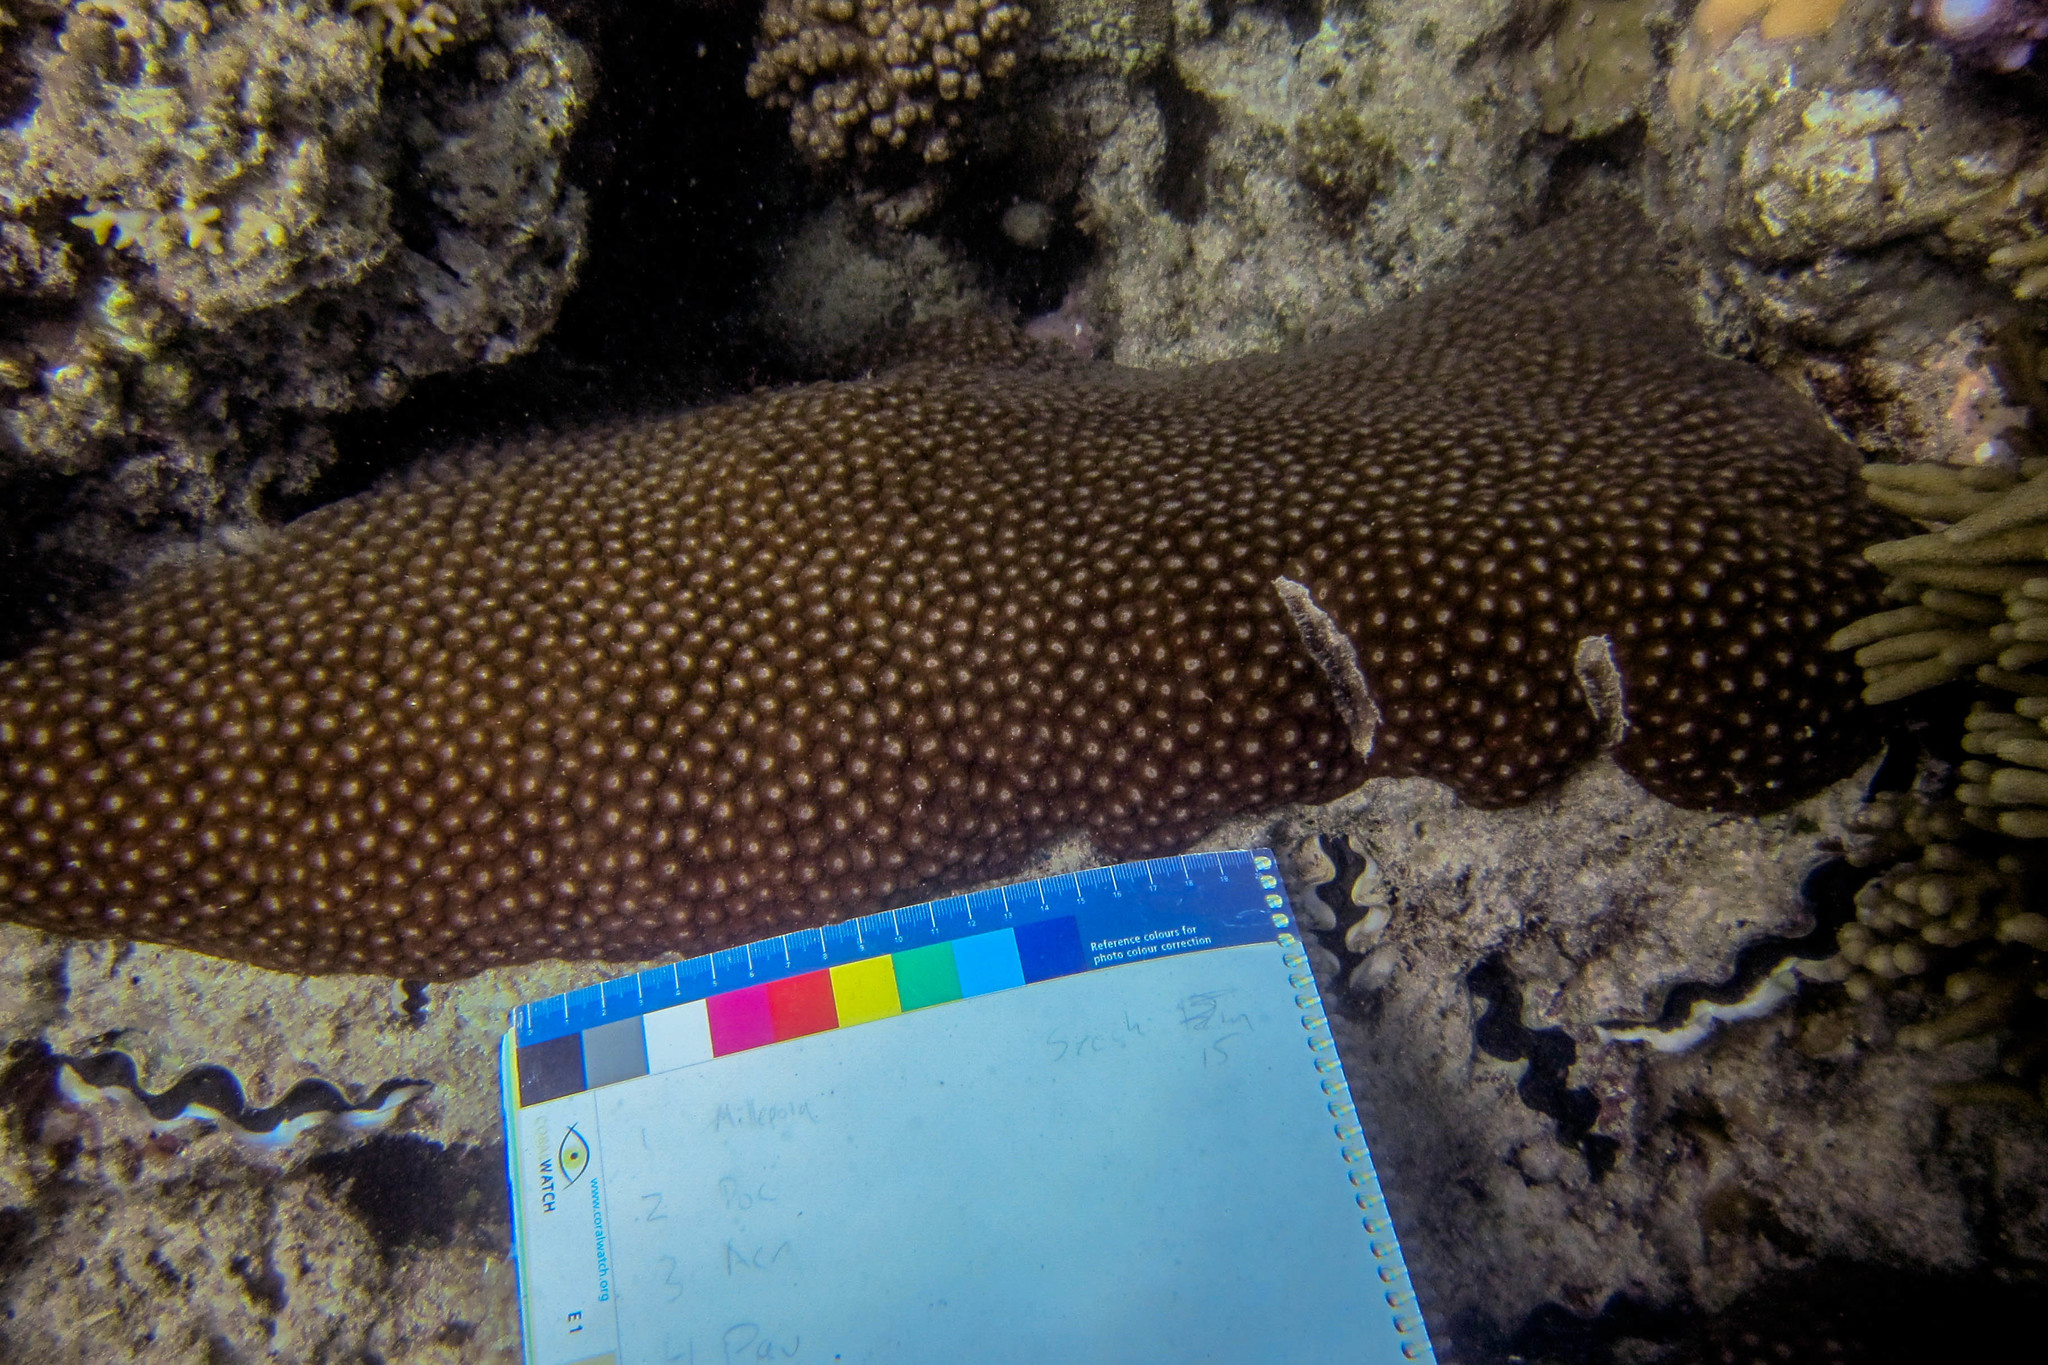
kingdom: Animalia
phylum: Cnidaria
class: Anthozoa
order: Scleractinia
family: Diploastraeidae
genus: Diploastrea
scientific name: Diploastrea heliopora
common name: Double-star coral
